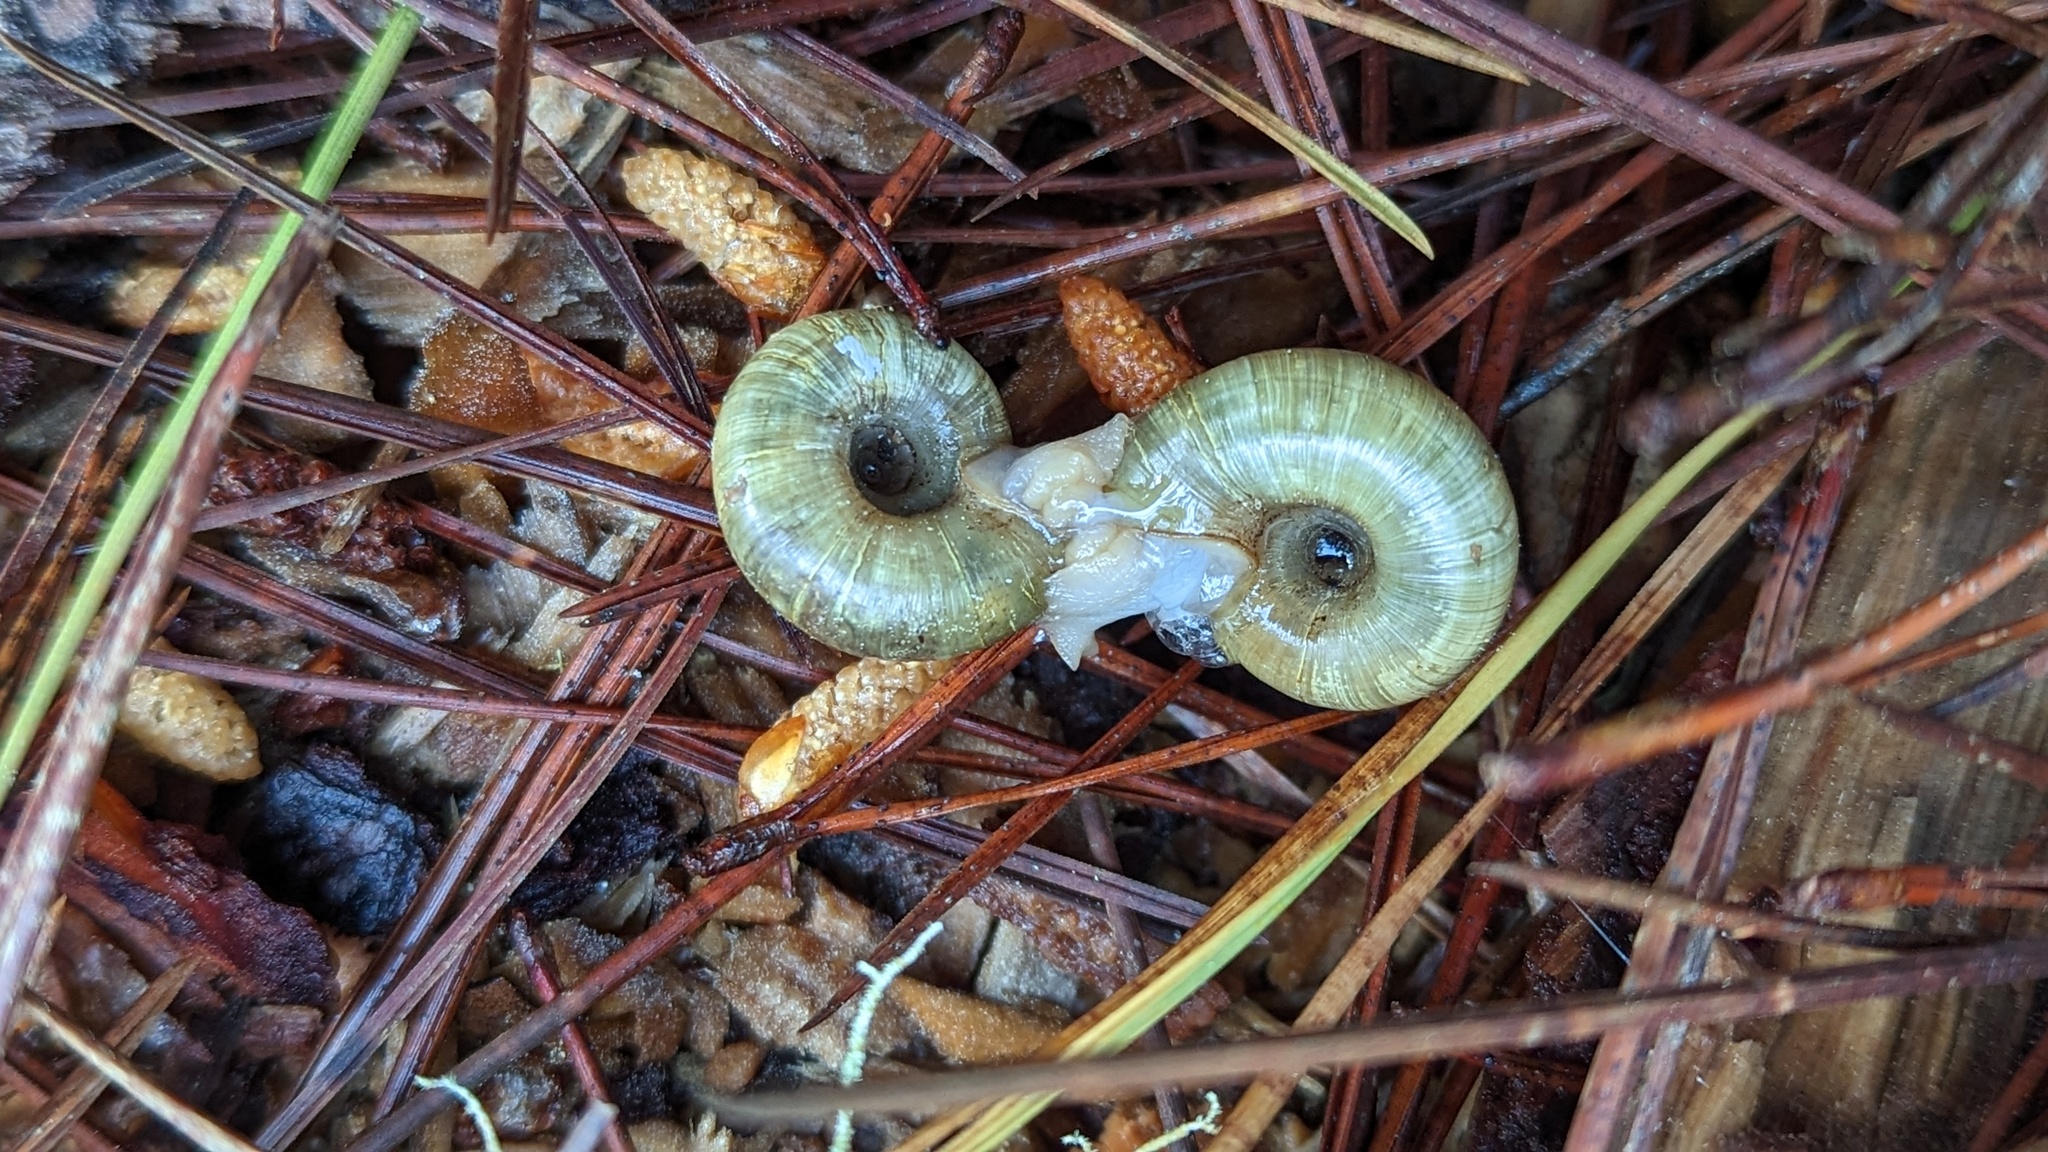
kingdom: Animalia
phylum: Mollusca
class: Gastropoda
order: Stylommatophora
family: Haplotrematidae
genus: Haplotrema
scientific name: Haplotrema minimum
